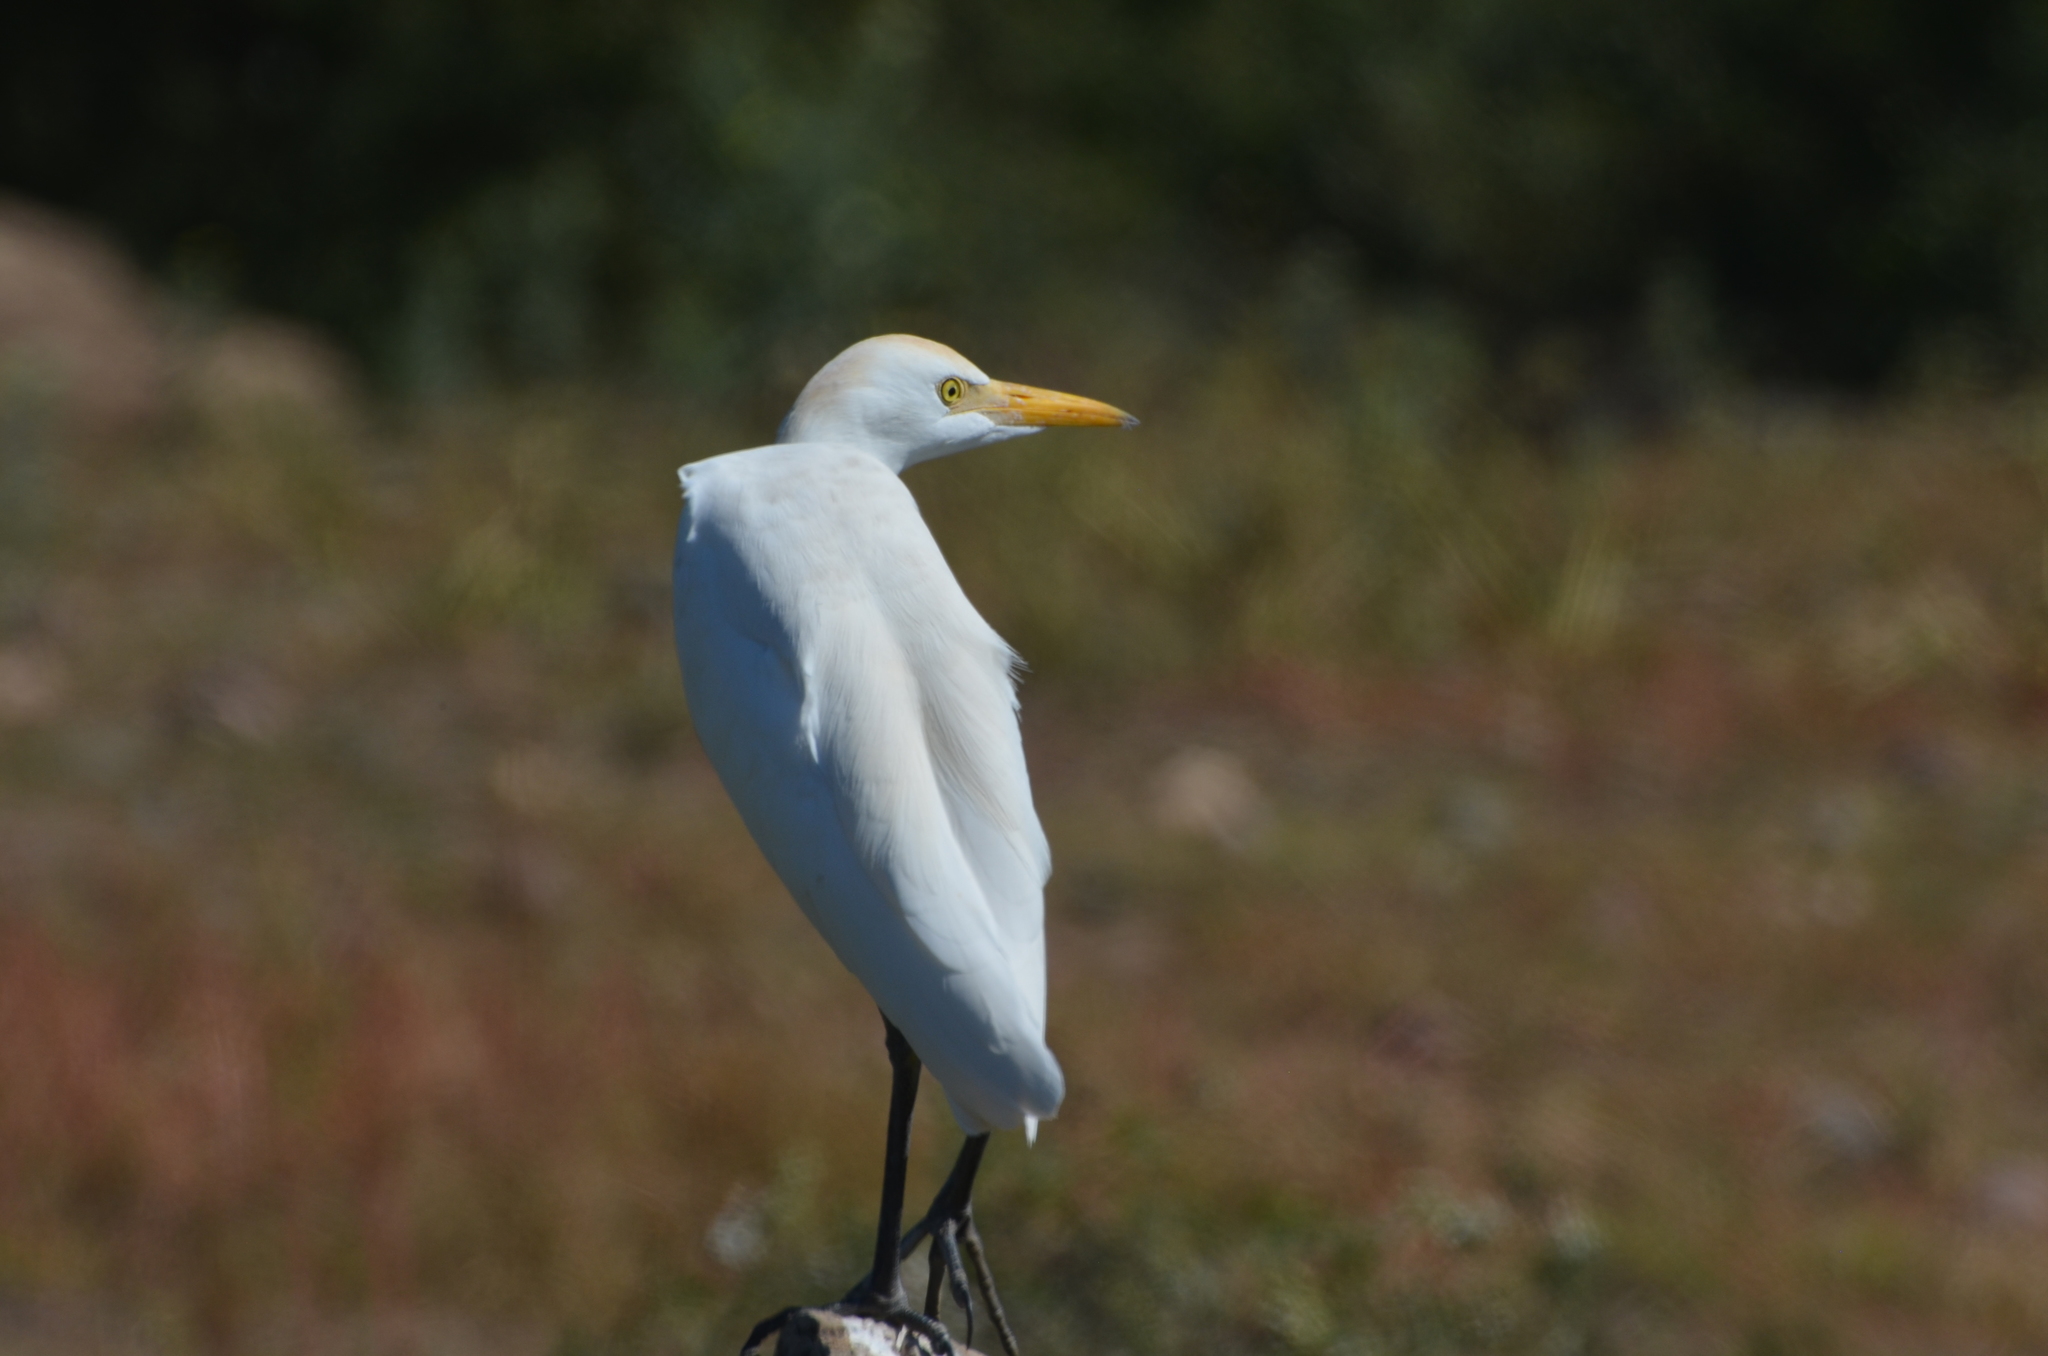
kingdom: Animalia
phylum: Chordata
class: Aves
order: Pelecaniformes
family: Ardeidae
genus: Bubulcus
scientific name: Bubulcus ibis
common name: Cattle egret
